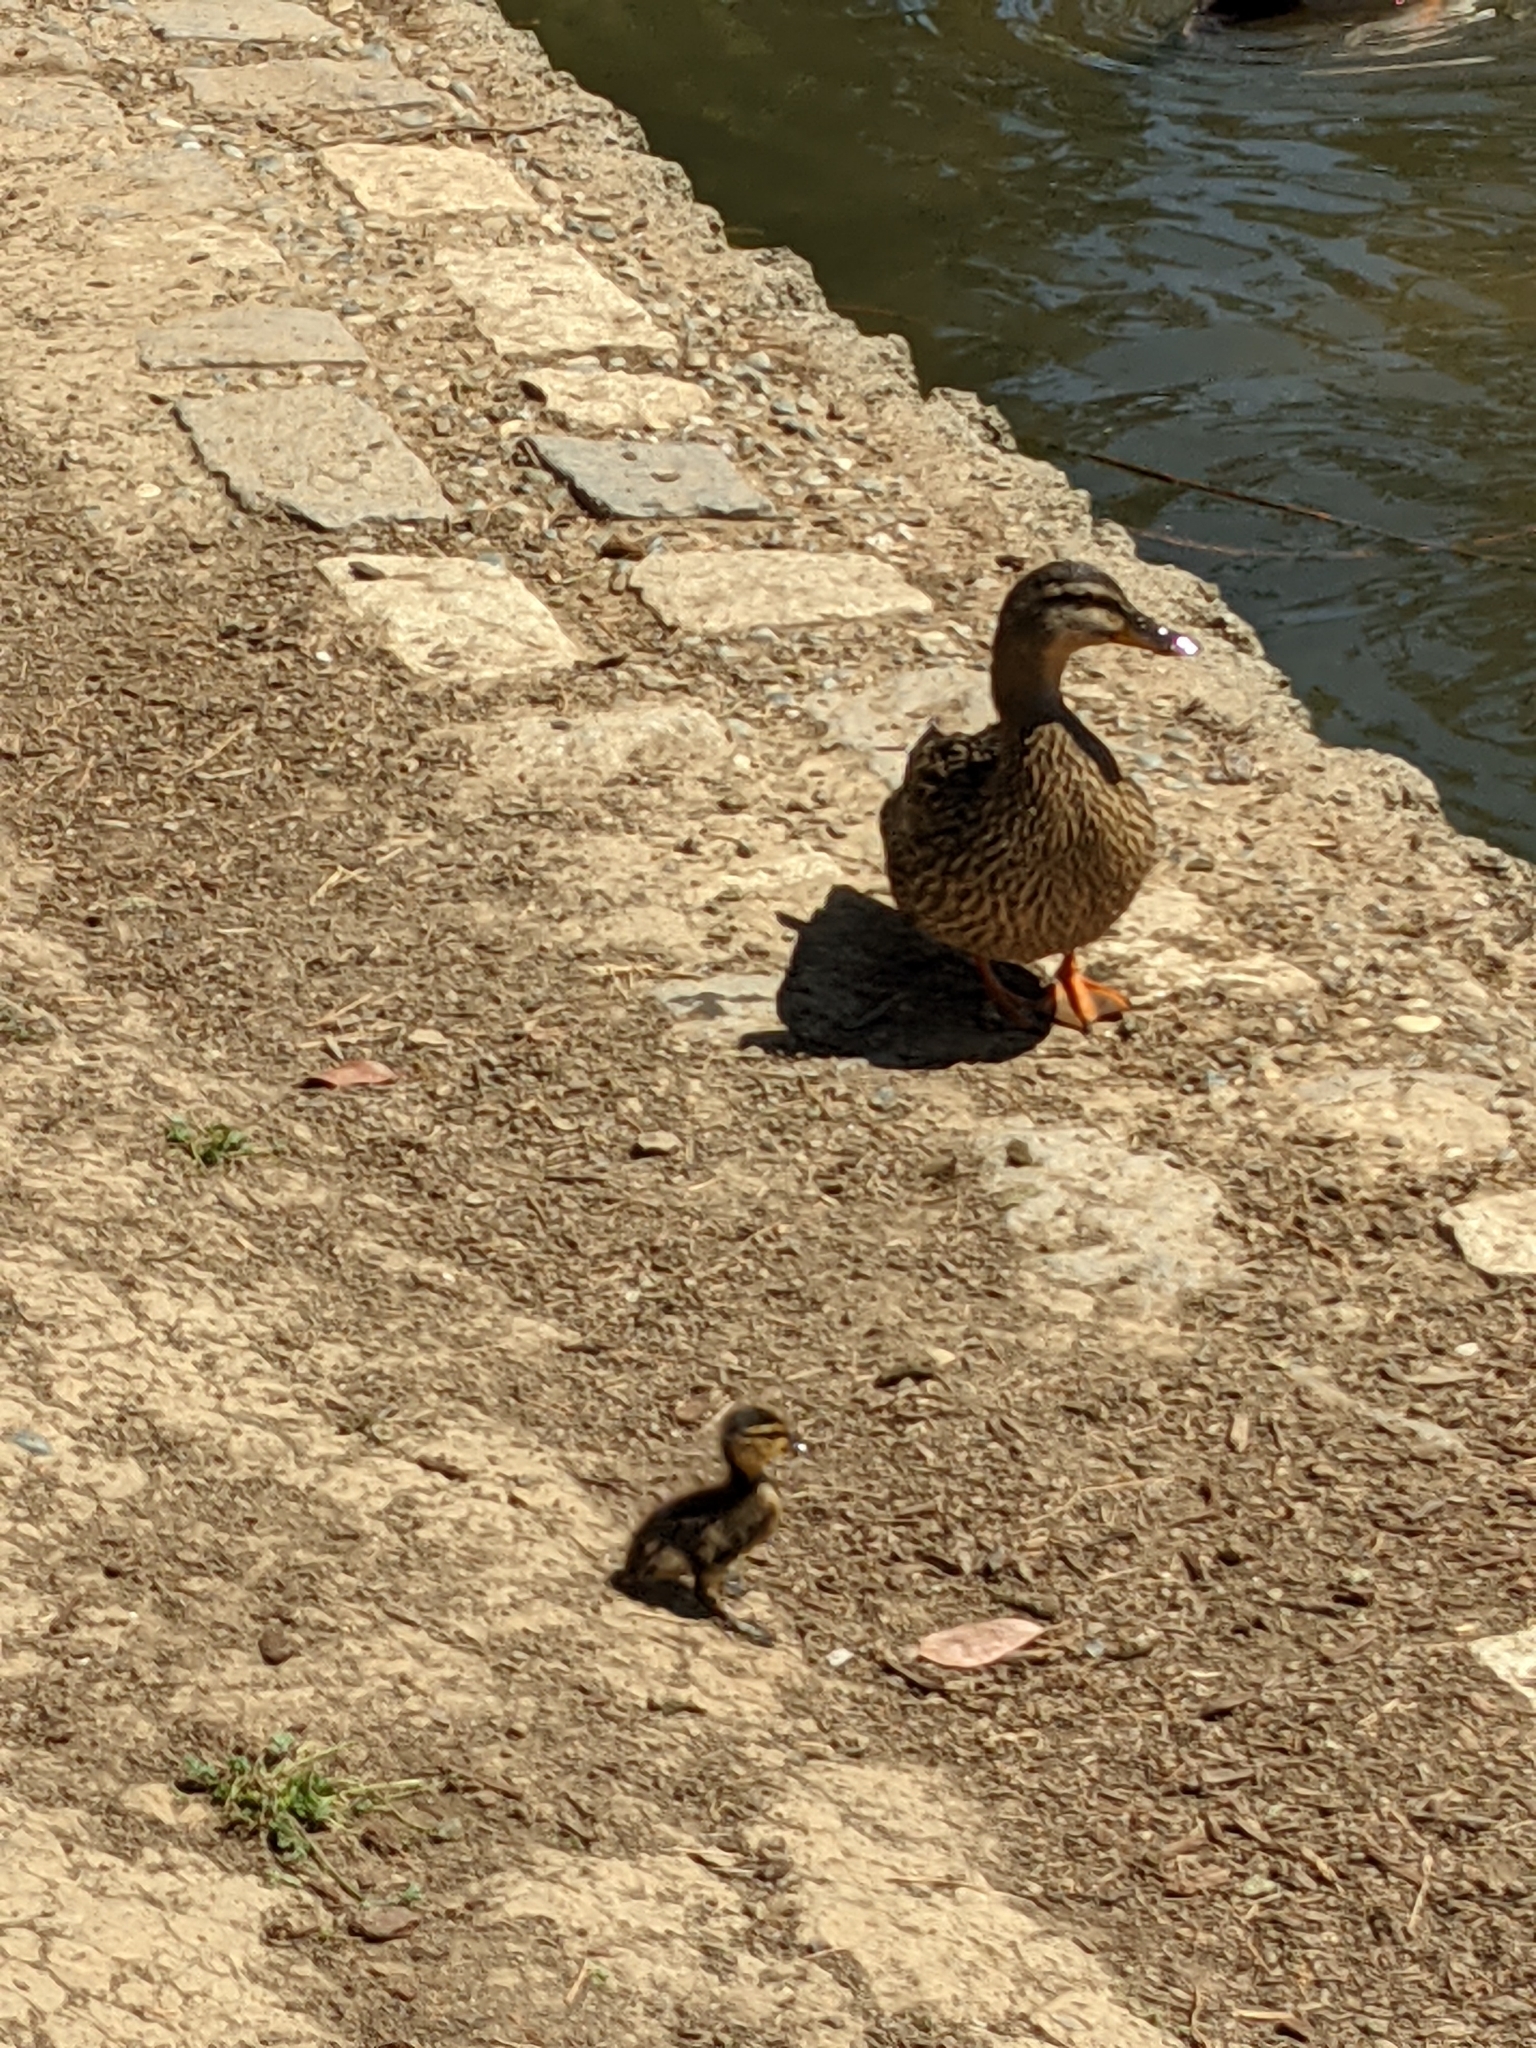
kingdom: Animalia
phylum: Chordata
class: Aves
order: Anseriformes
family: Anatidae
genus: Anas
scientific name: Anas platyrhynchos
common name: Mallard
